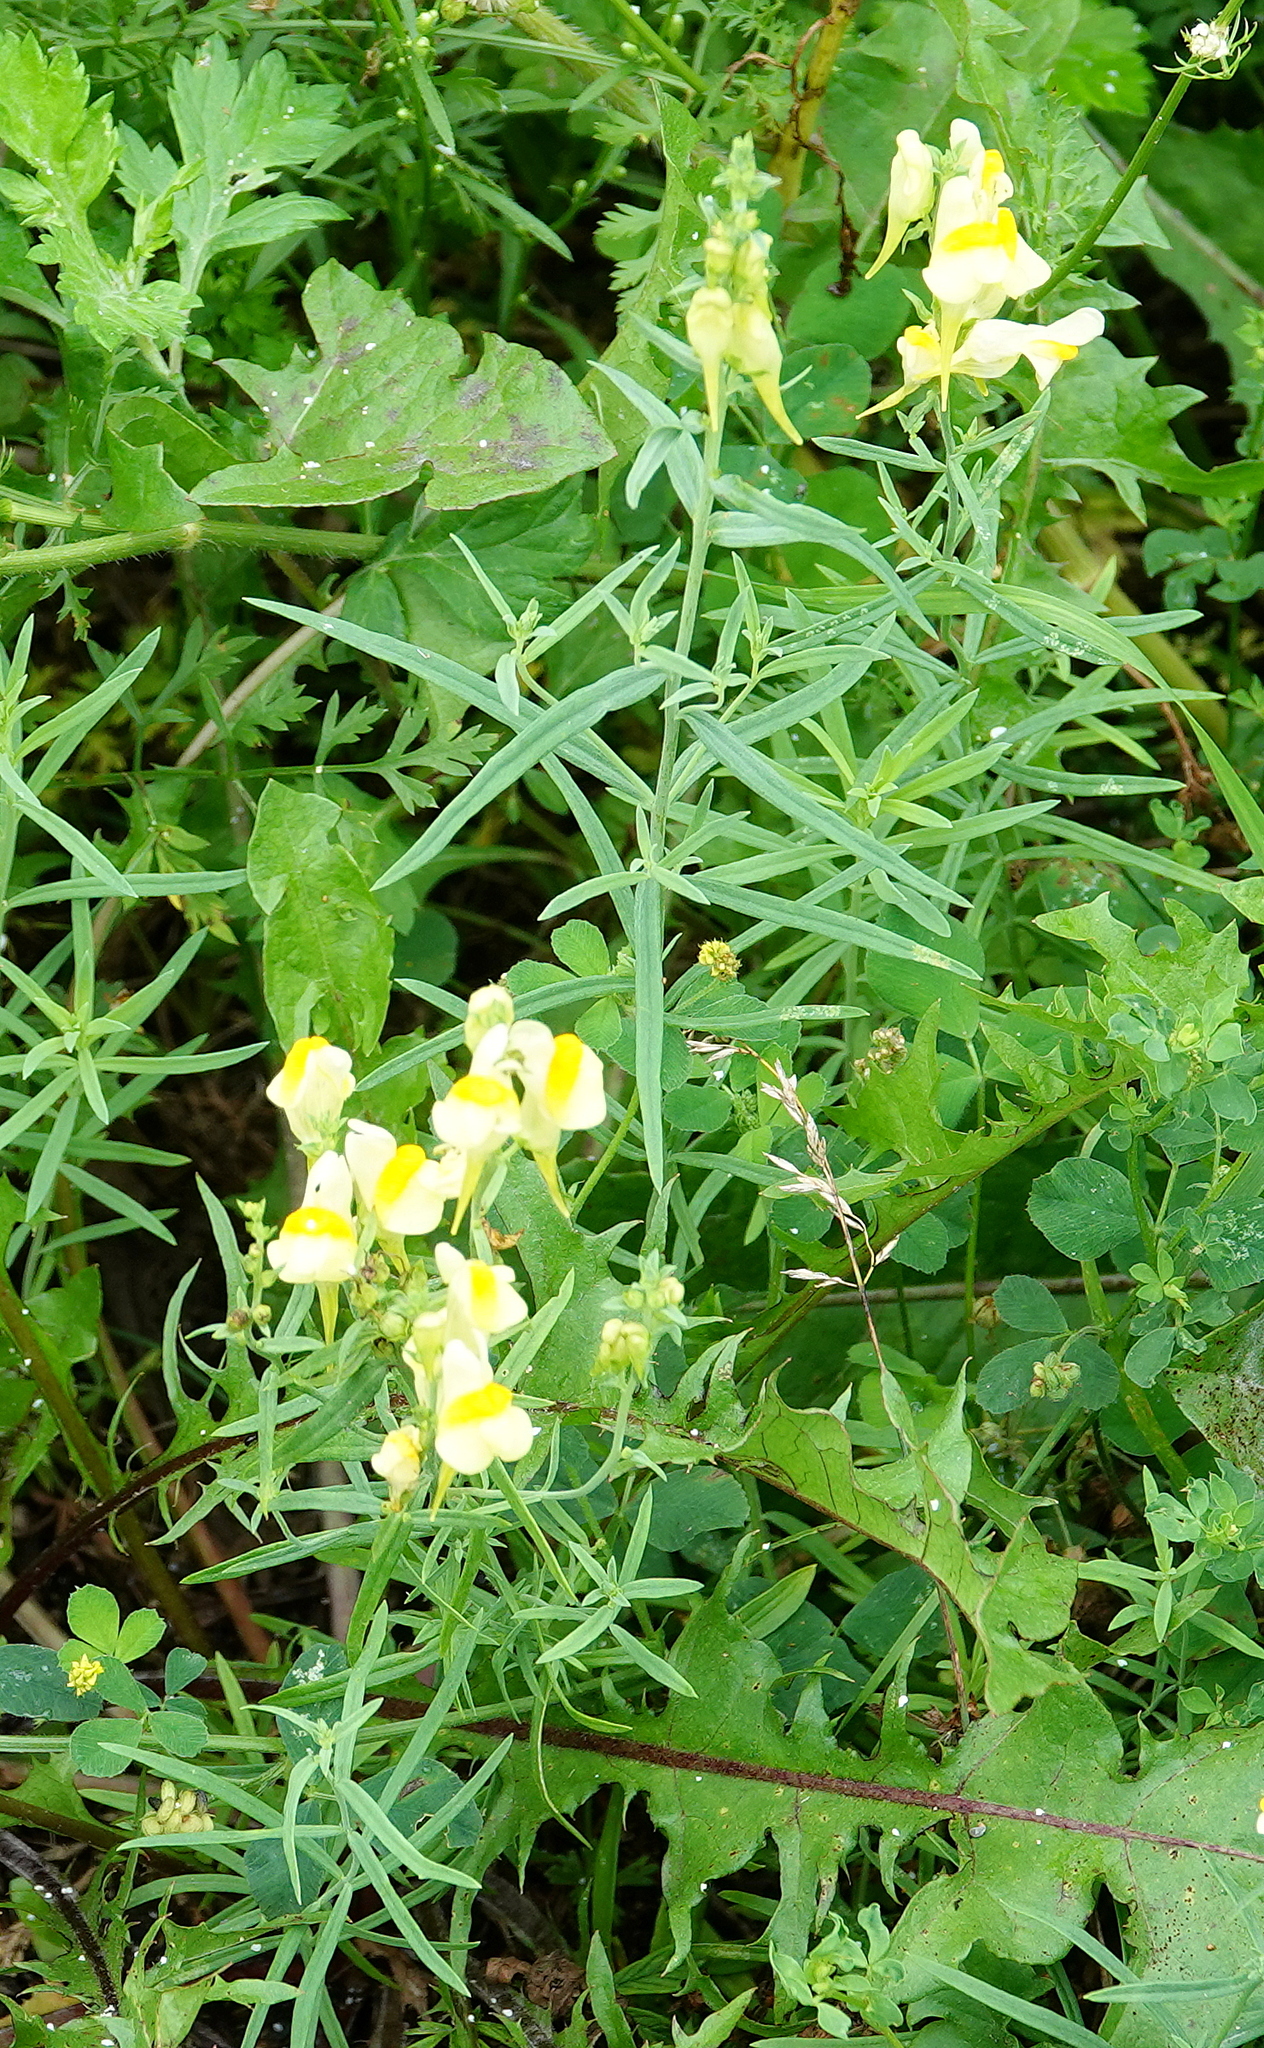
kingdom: Plantae
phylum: Tracheophyta
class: Magnoliopsida
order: Lamiales
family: Plantaginaceae
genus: Linaria
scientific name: Linaria vulgaris
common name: Butter and eggs
